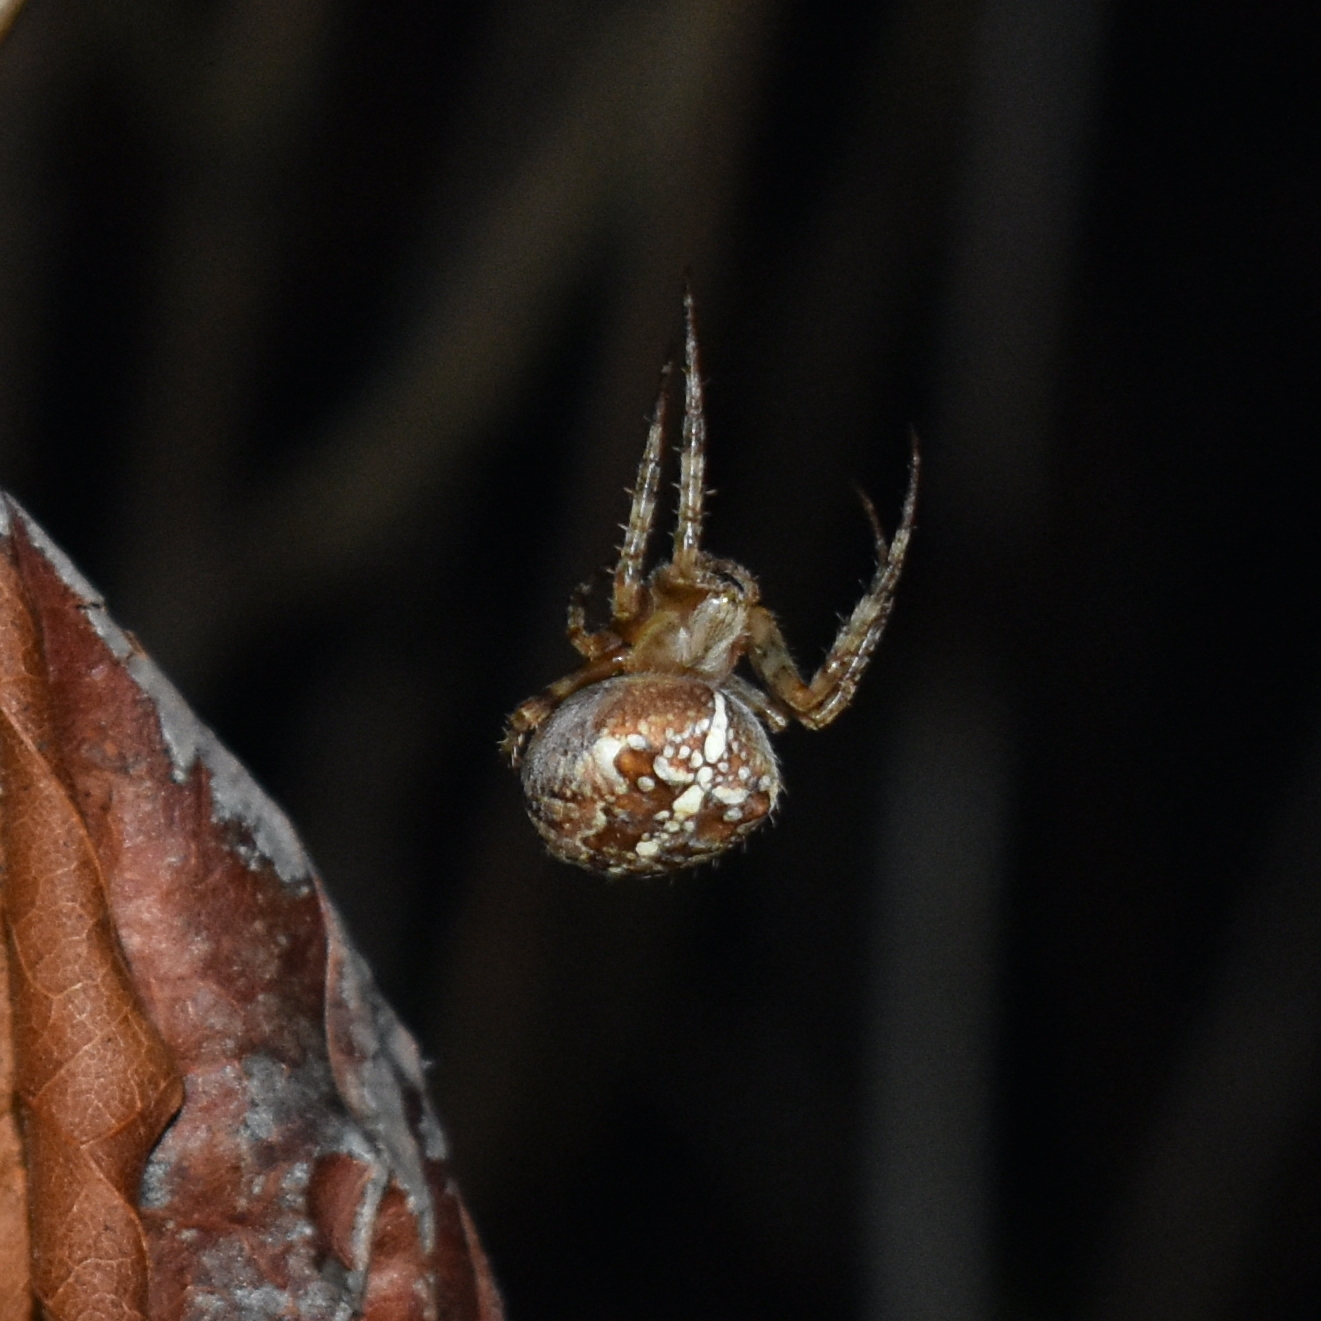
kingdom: Animalia
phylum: Arthropoda
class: Arachnida
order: Araneae
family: Araneidae
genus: Araneus
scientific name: Araneus diadematus
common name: Cross orbweaver
